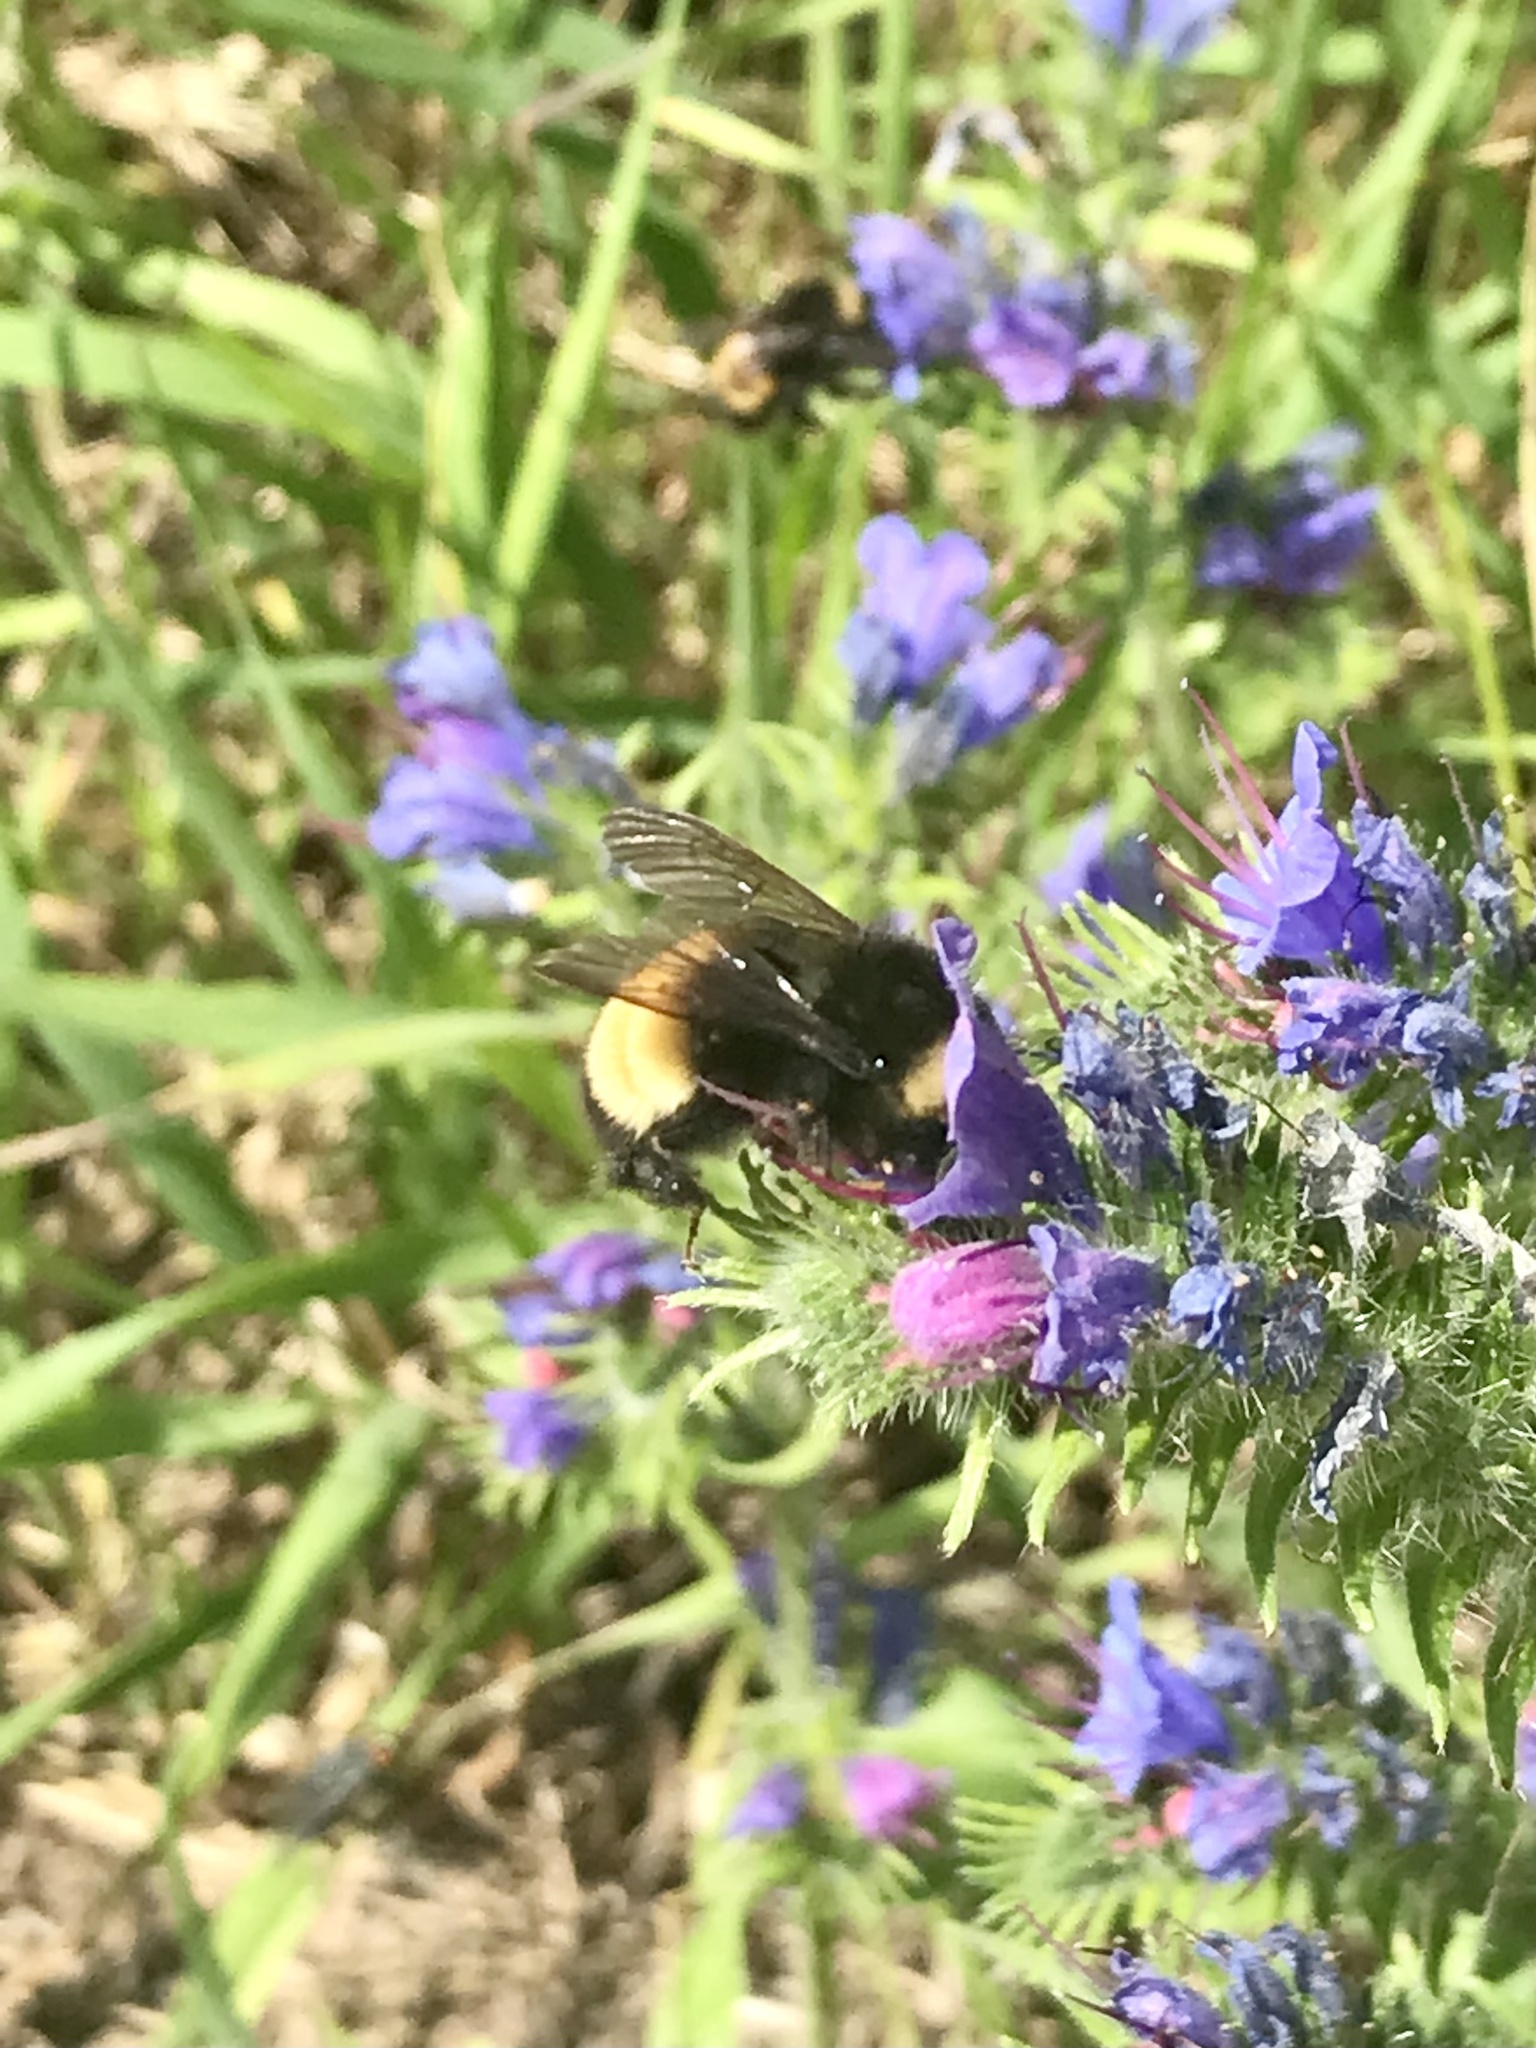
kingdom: Animalia
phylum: Arthropoda
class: Insecta
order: Hymenoptera
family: Apidae
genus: Bombus
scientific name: Bombus terricola
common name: Yellow-banded bumble bee
